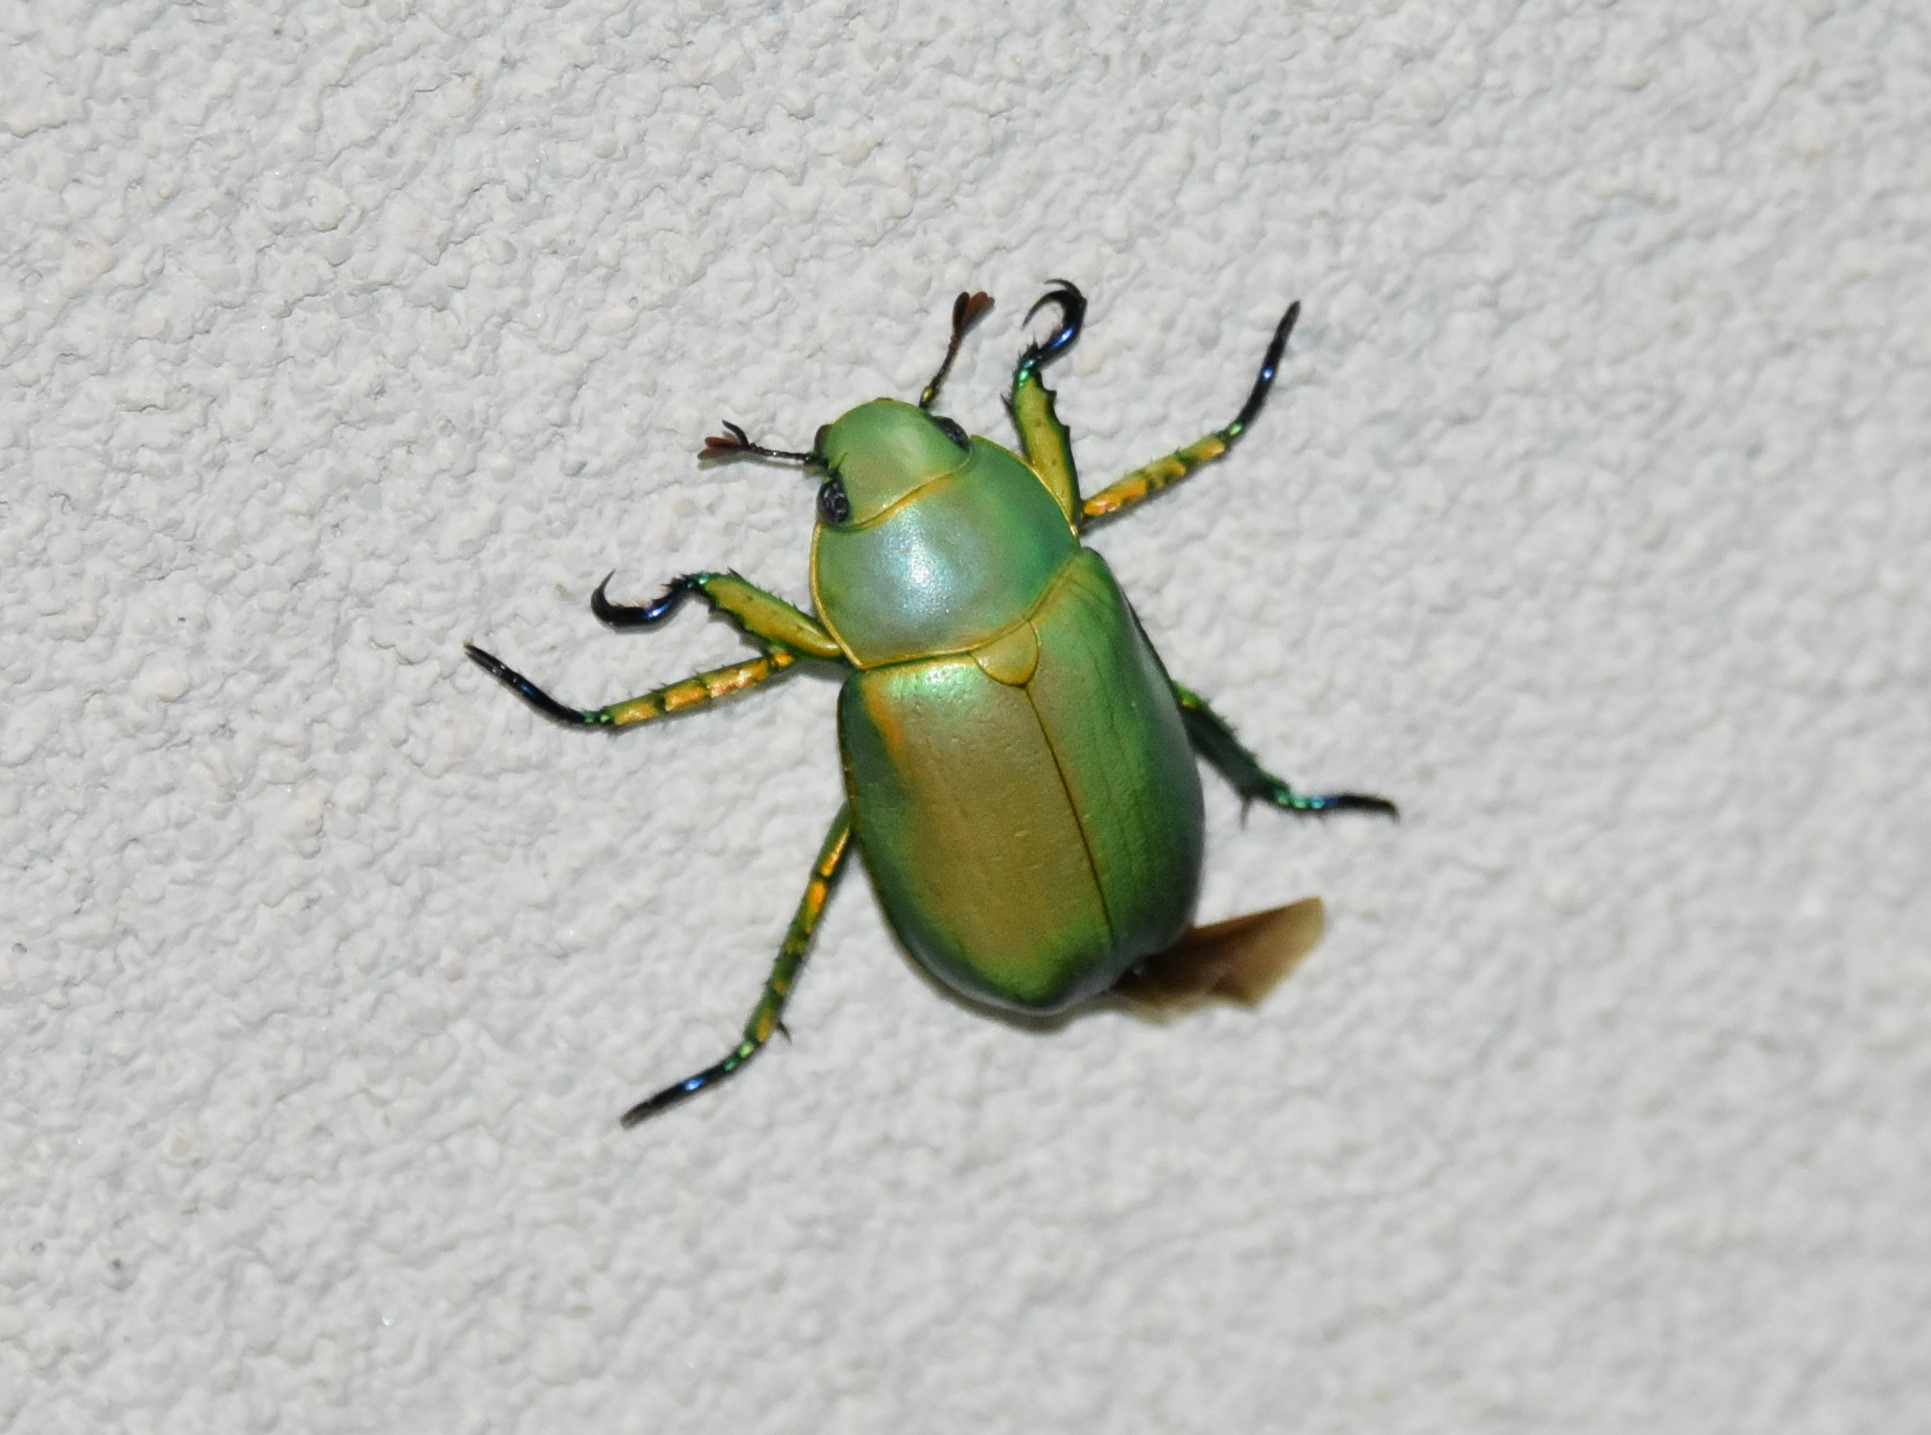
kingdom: Animalia
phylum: Arthropoda
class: Insecta
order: Coleoptera
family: Scarabaeidae
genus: Chrysina
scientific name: Chrysina woodi
